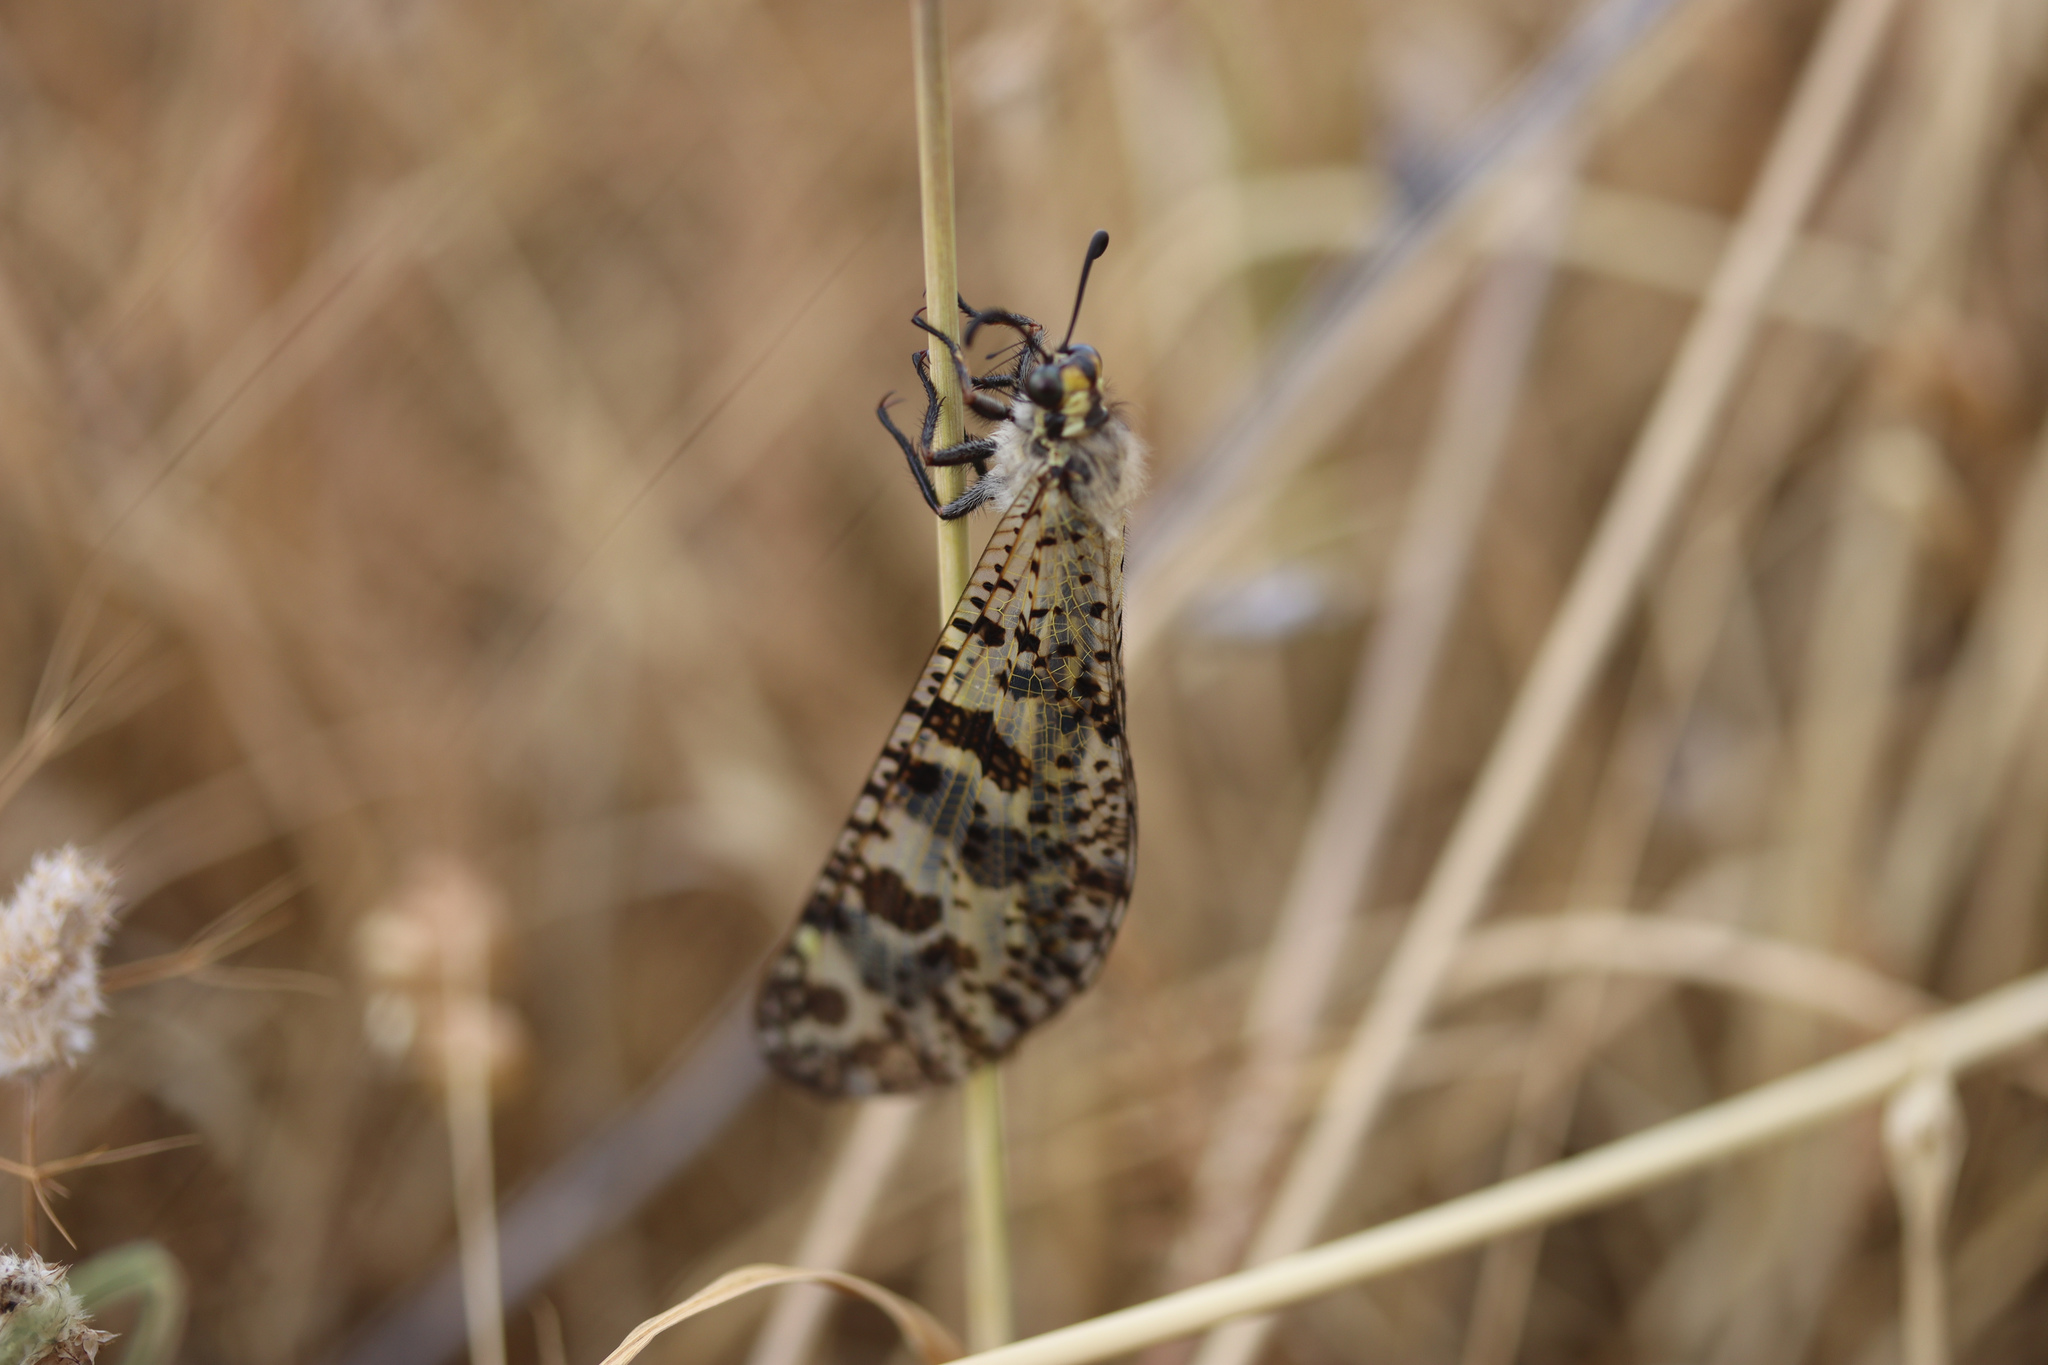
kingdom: Animalia
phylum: Arthropoda
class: Insecta
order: Neuroptera
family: Myrmeleontidae
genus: Palpares
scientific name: Palpares libelluloides
